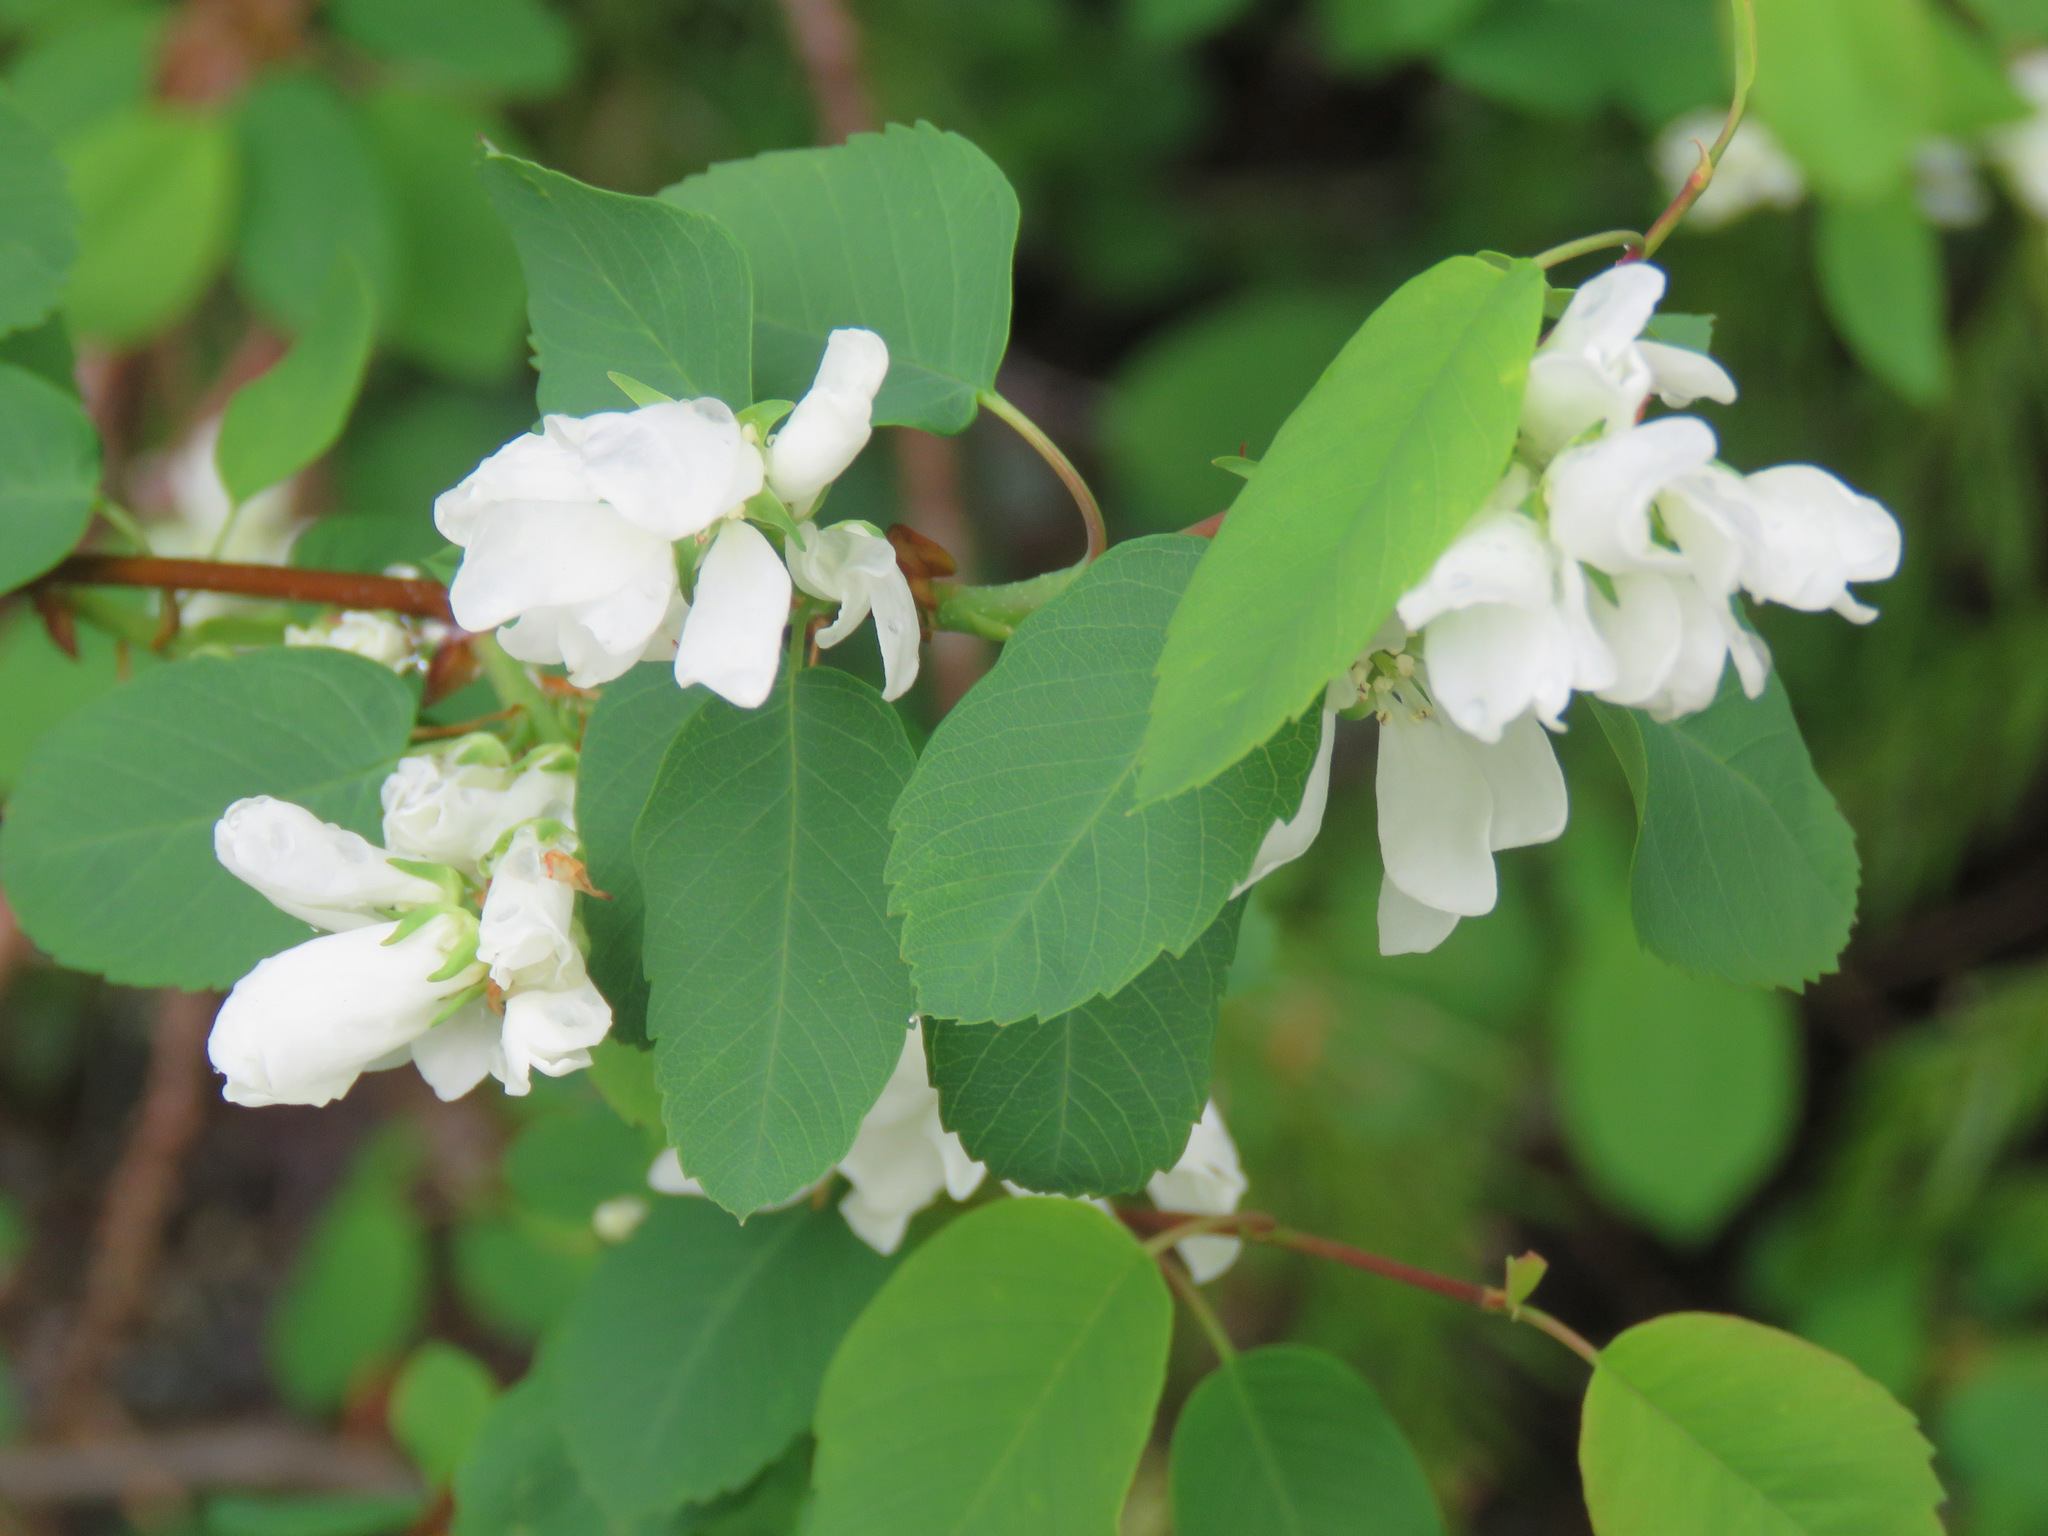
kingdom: Plantae
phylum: Tracheophyta
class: Magnoliopsida
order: Rosales
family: Rosaceae
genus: Amelanchier
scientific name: Amelanchier alnifolia
